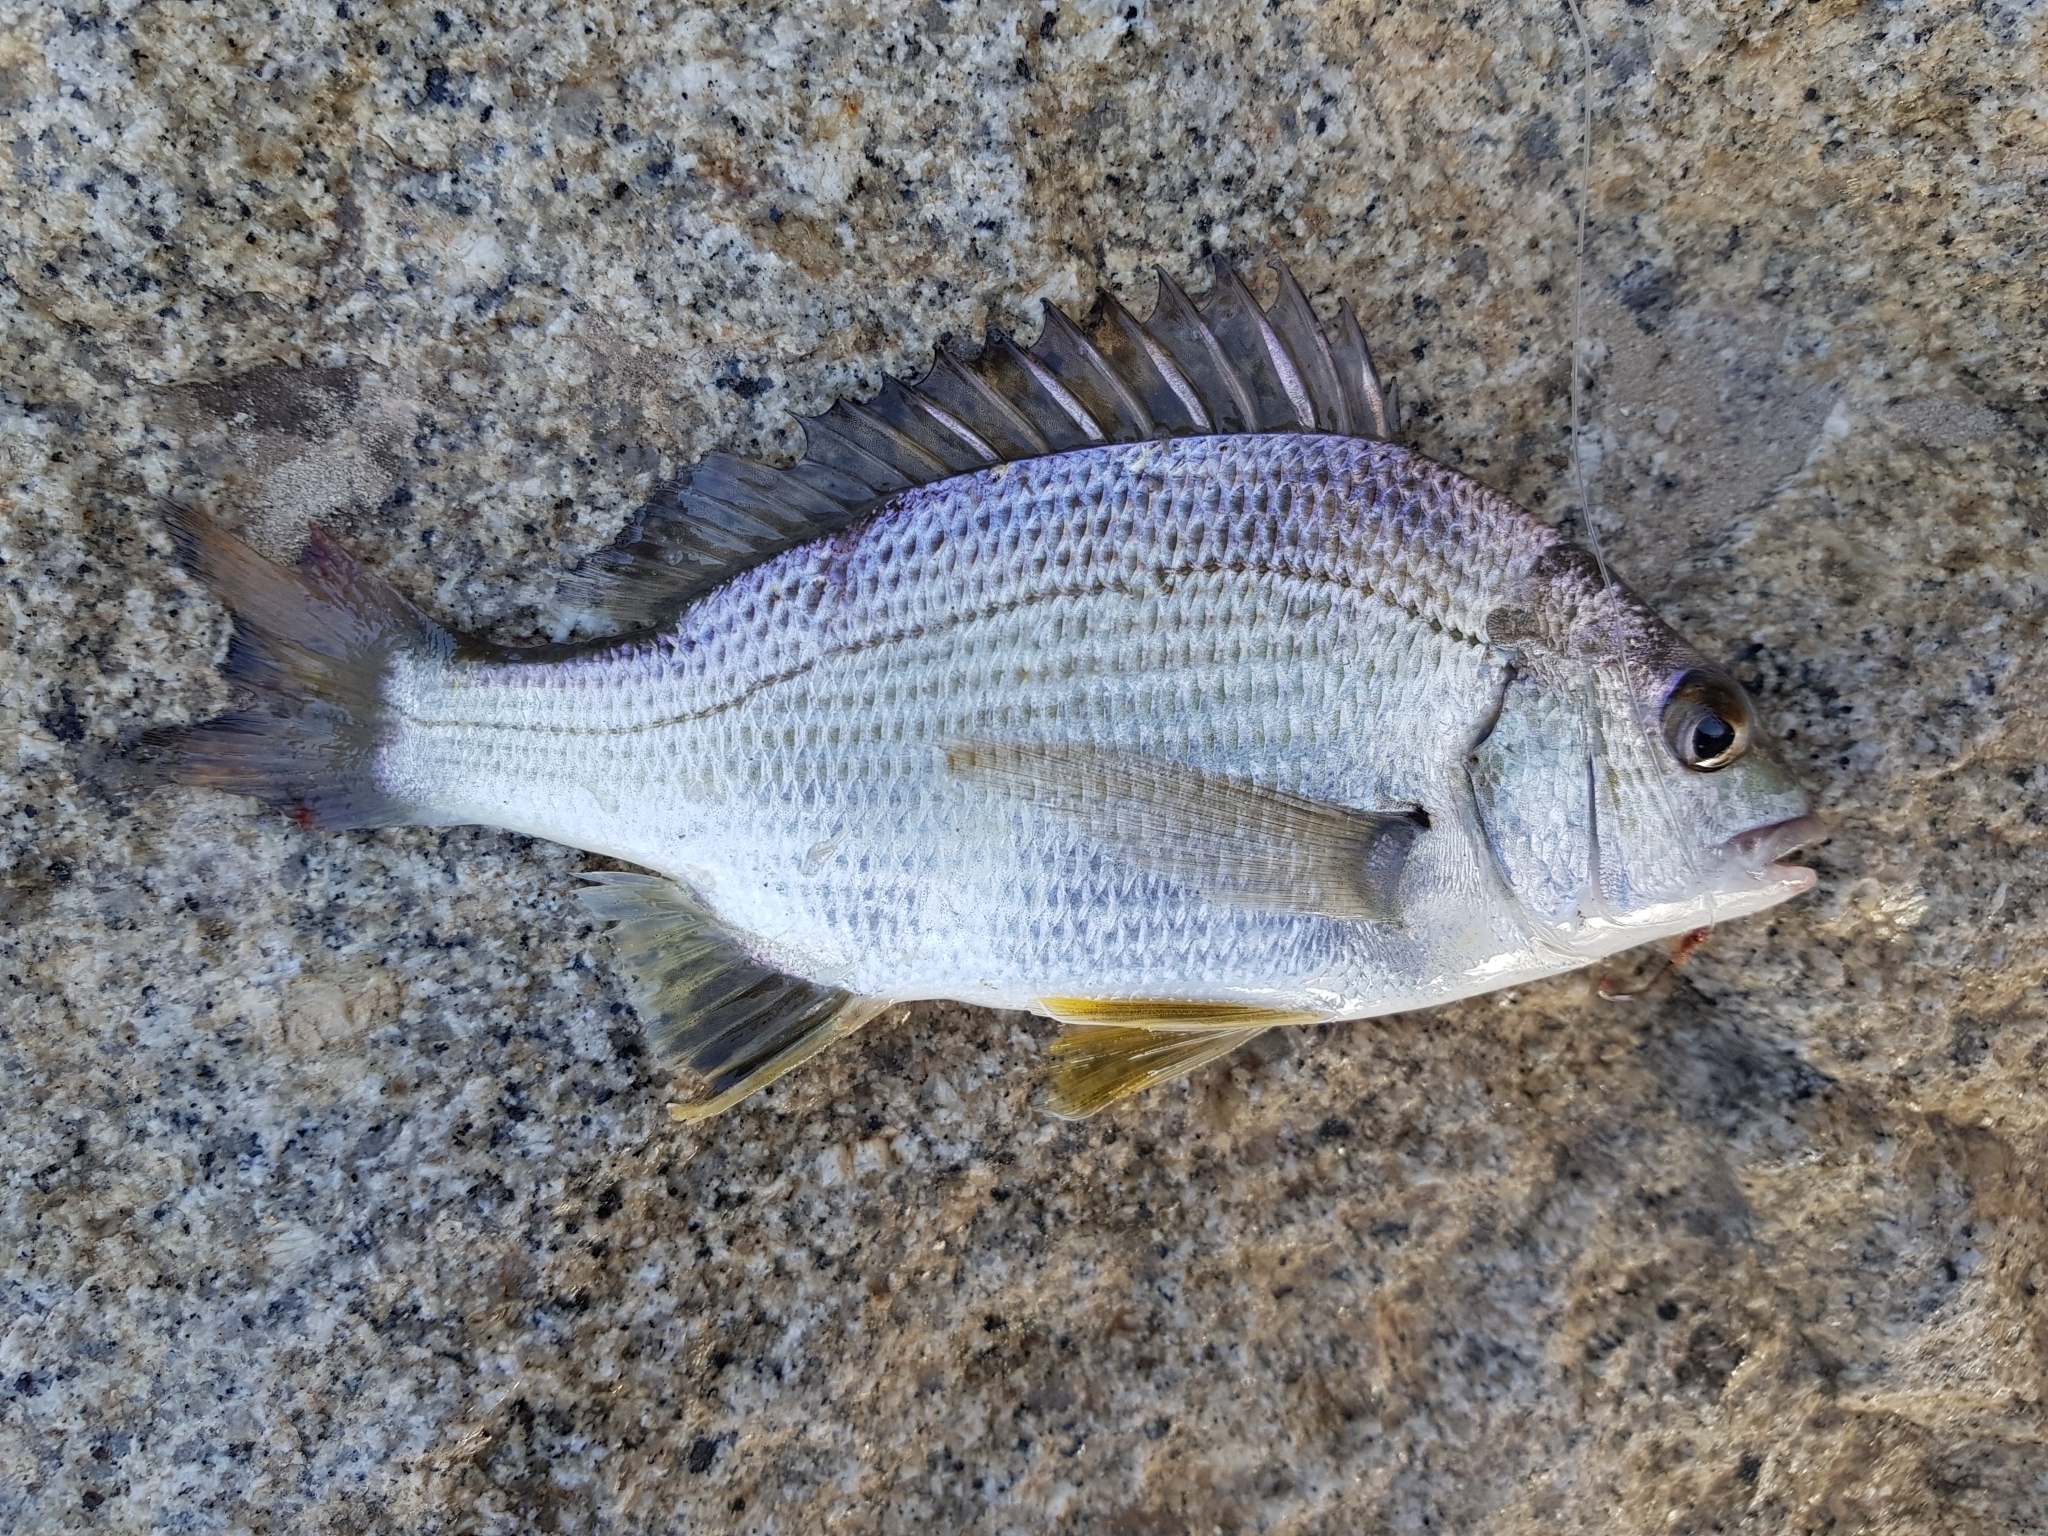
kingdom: Animalia
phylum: Chordata
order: Perciformes
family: Sparidae
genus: Acanthopagrus
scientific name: Acanthopagrus butcheri
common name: Black bream
